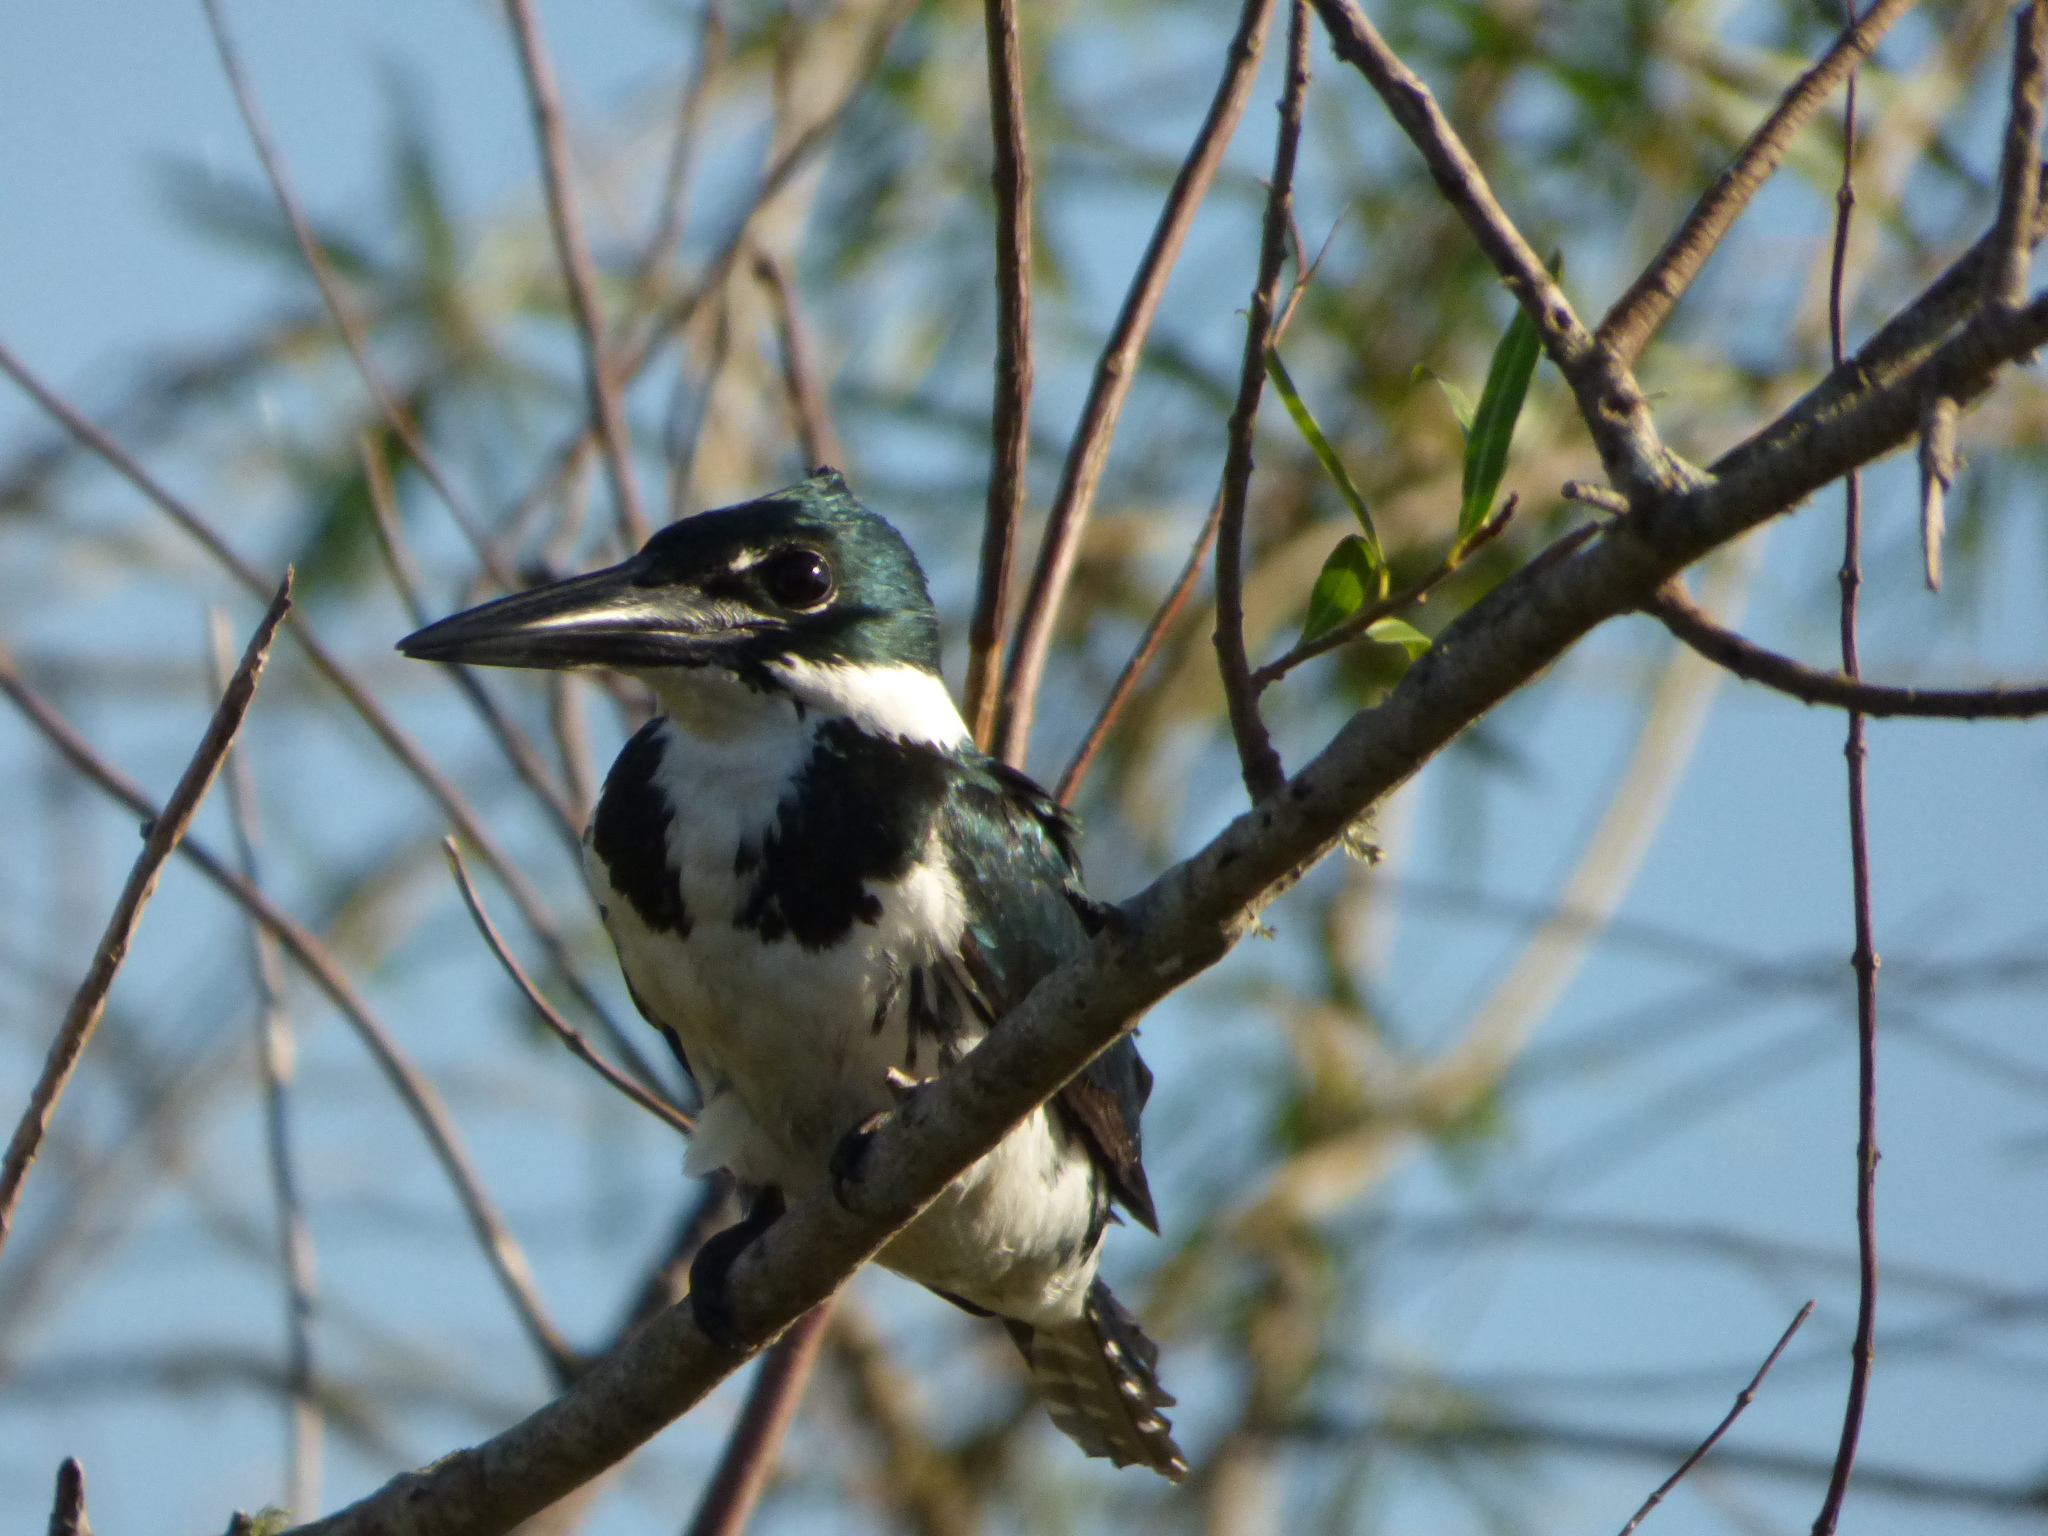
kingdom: Animalia
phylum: Chordata
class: Aves
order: Coraciiformes
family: Alcedinidae
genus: Chloroceryle
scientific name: Chloroceryle amazona
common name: Amazon kingfisher
